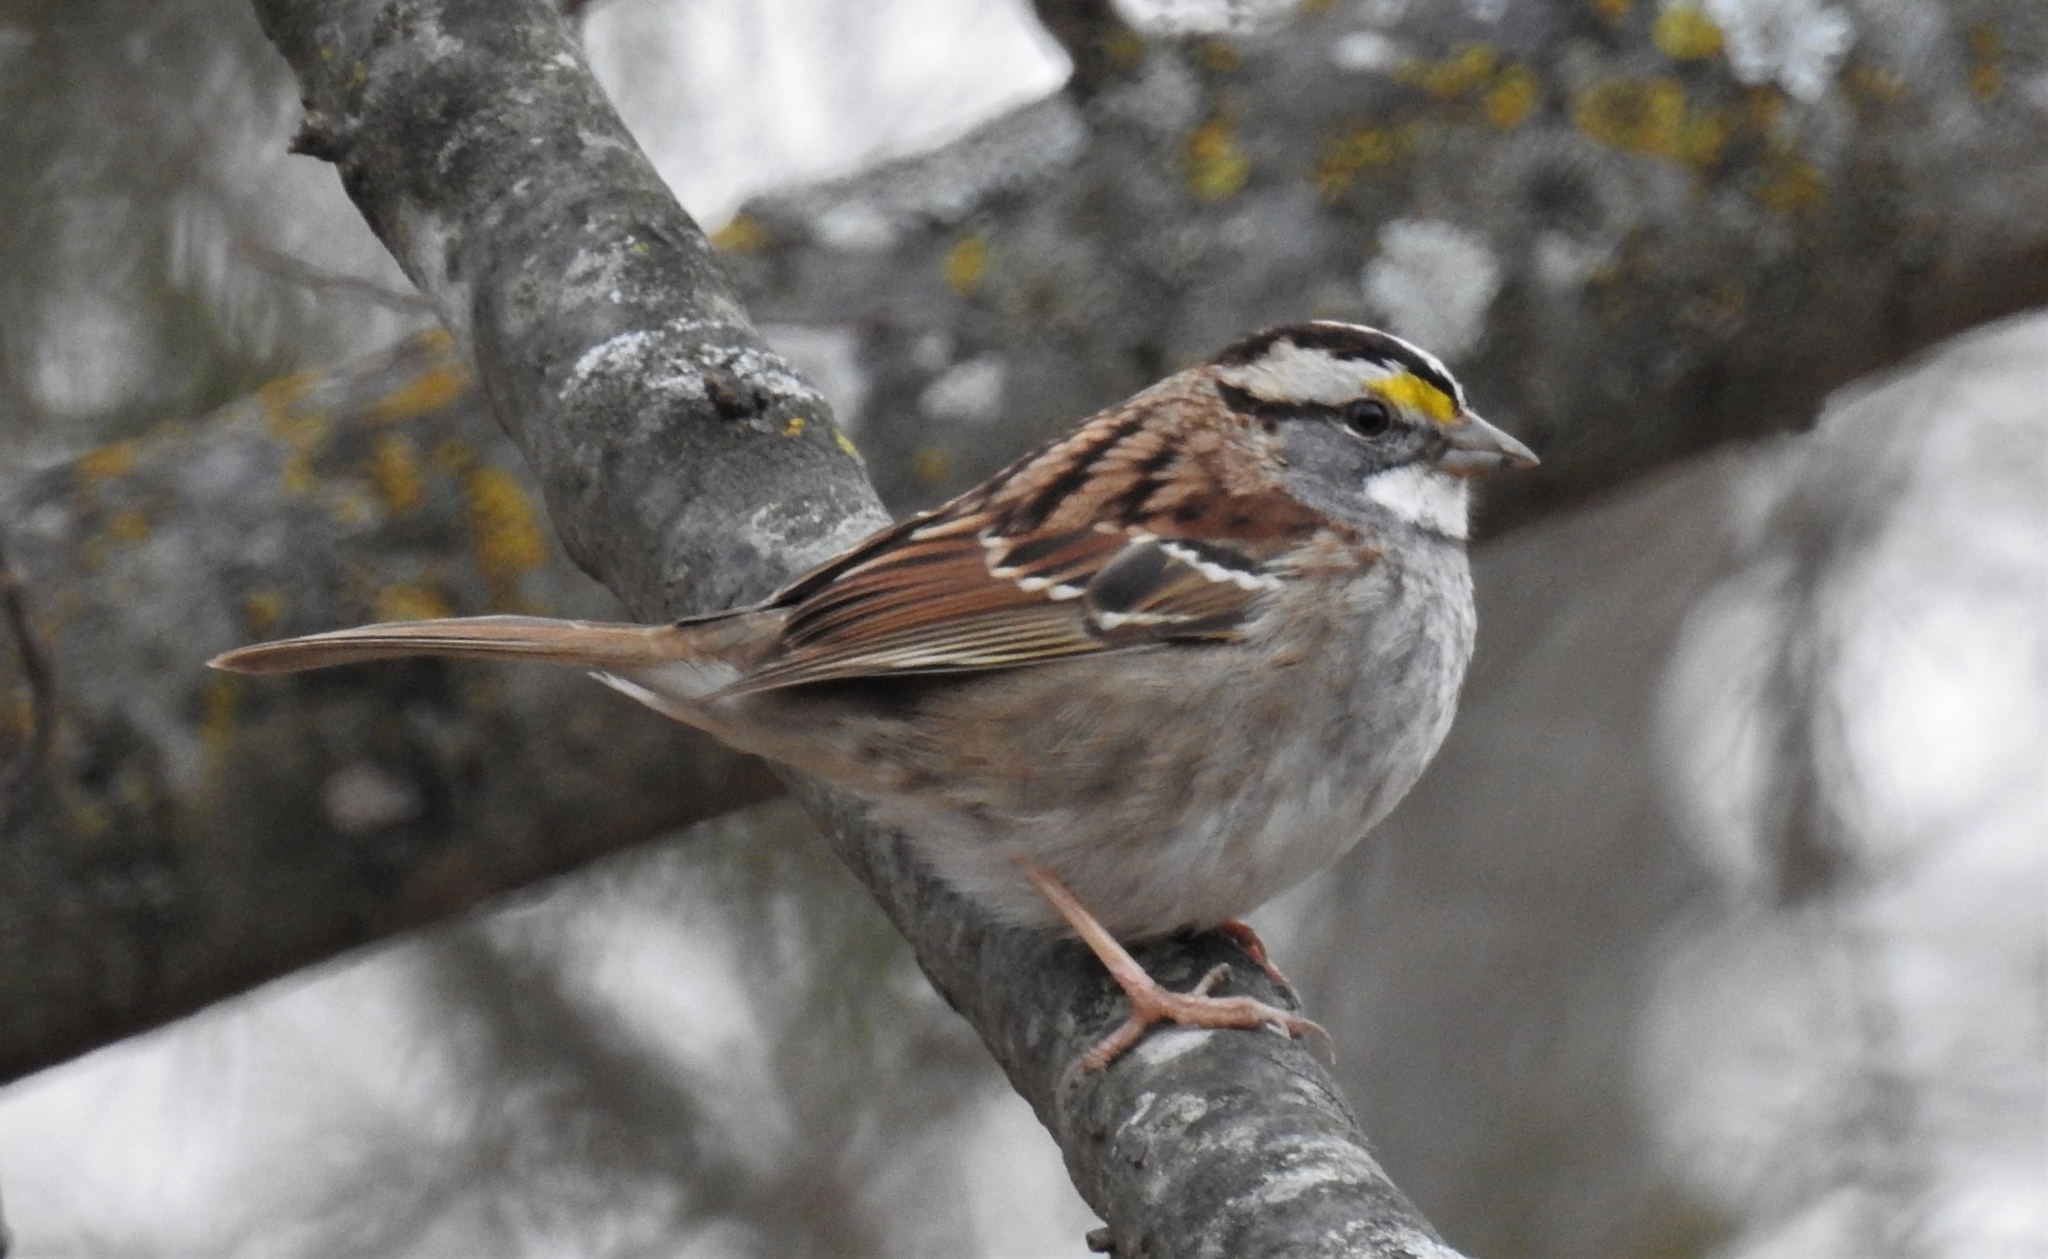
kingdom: Animalia
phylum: Chordata
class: Aves
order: Passeriformes
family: Passerellidae
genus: Zonotrichia
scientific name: Zonotrichia albicollis
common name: White-throated sparrow
